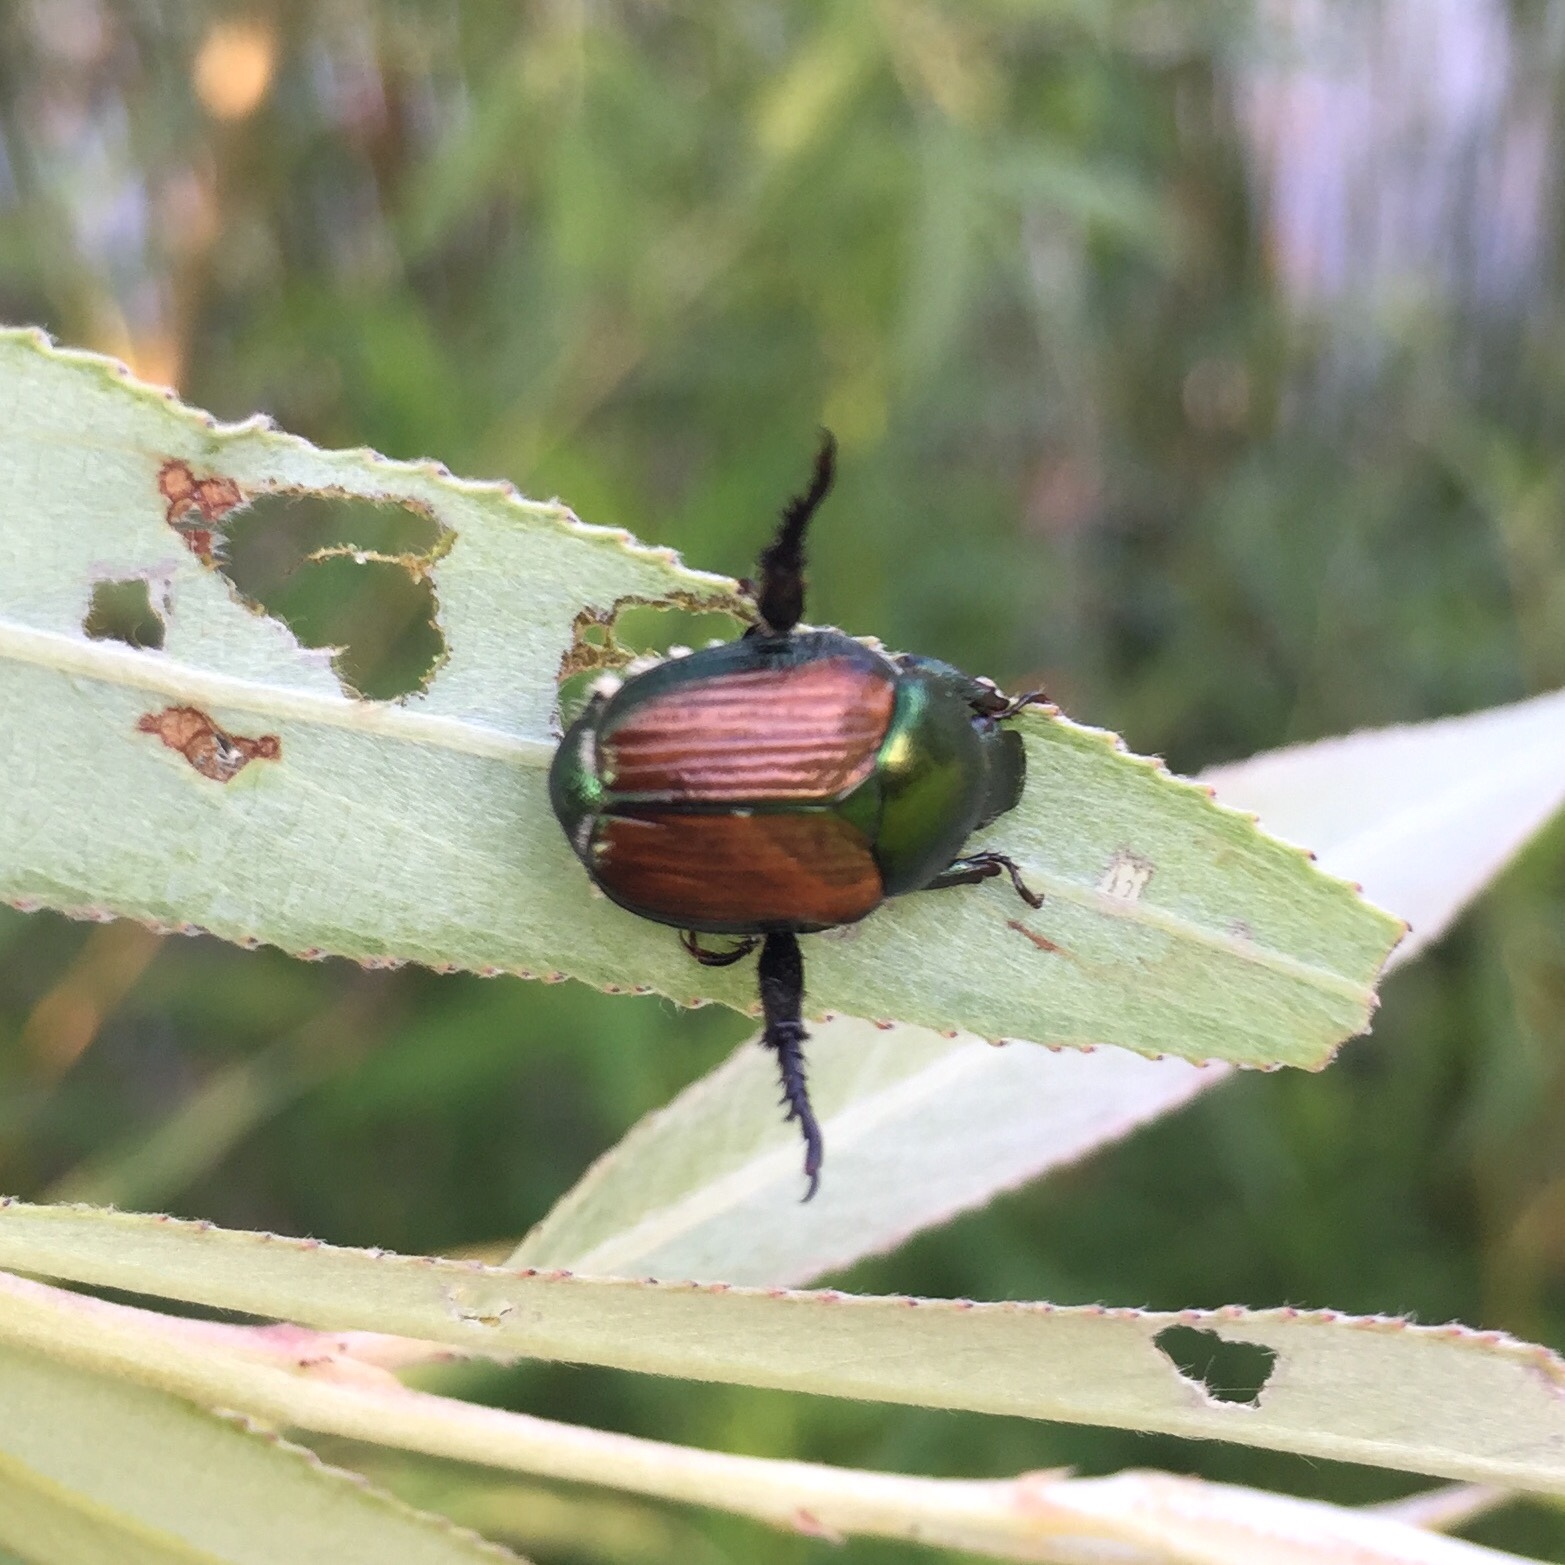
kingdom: Animalia
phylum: Arthropoda
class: Insecta
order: Coleoptera
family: Scarabaeidae
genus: Popillia
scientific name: Popillia japonica
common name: Japanese beetle
